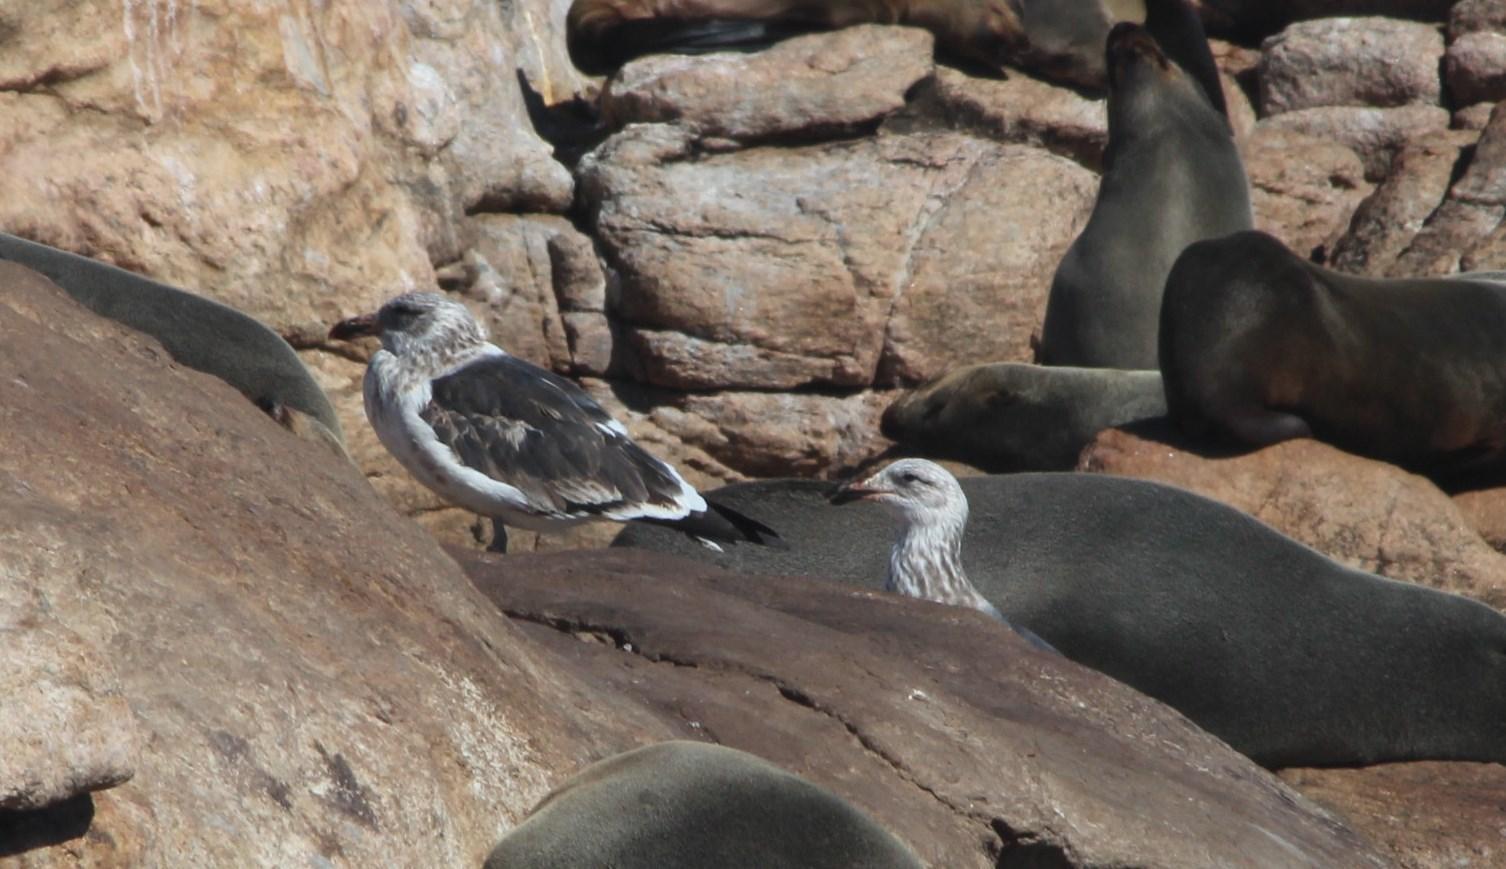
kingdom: Animalia
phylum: Chordata
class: Aves
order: Charadriiformes
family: Laridae
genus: Larus
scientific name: Larus dominicanus
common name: Kelp gull
